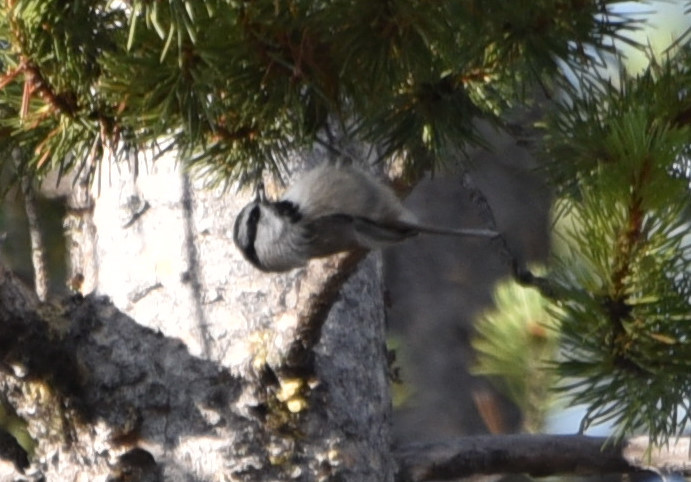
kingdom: Animalia
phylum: Chordata
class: Aves
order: Passeriformes
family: Paridae
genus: Poecile
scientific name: Poecile gambeli
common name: Mountain chickadee
